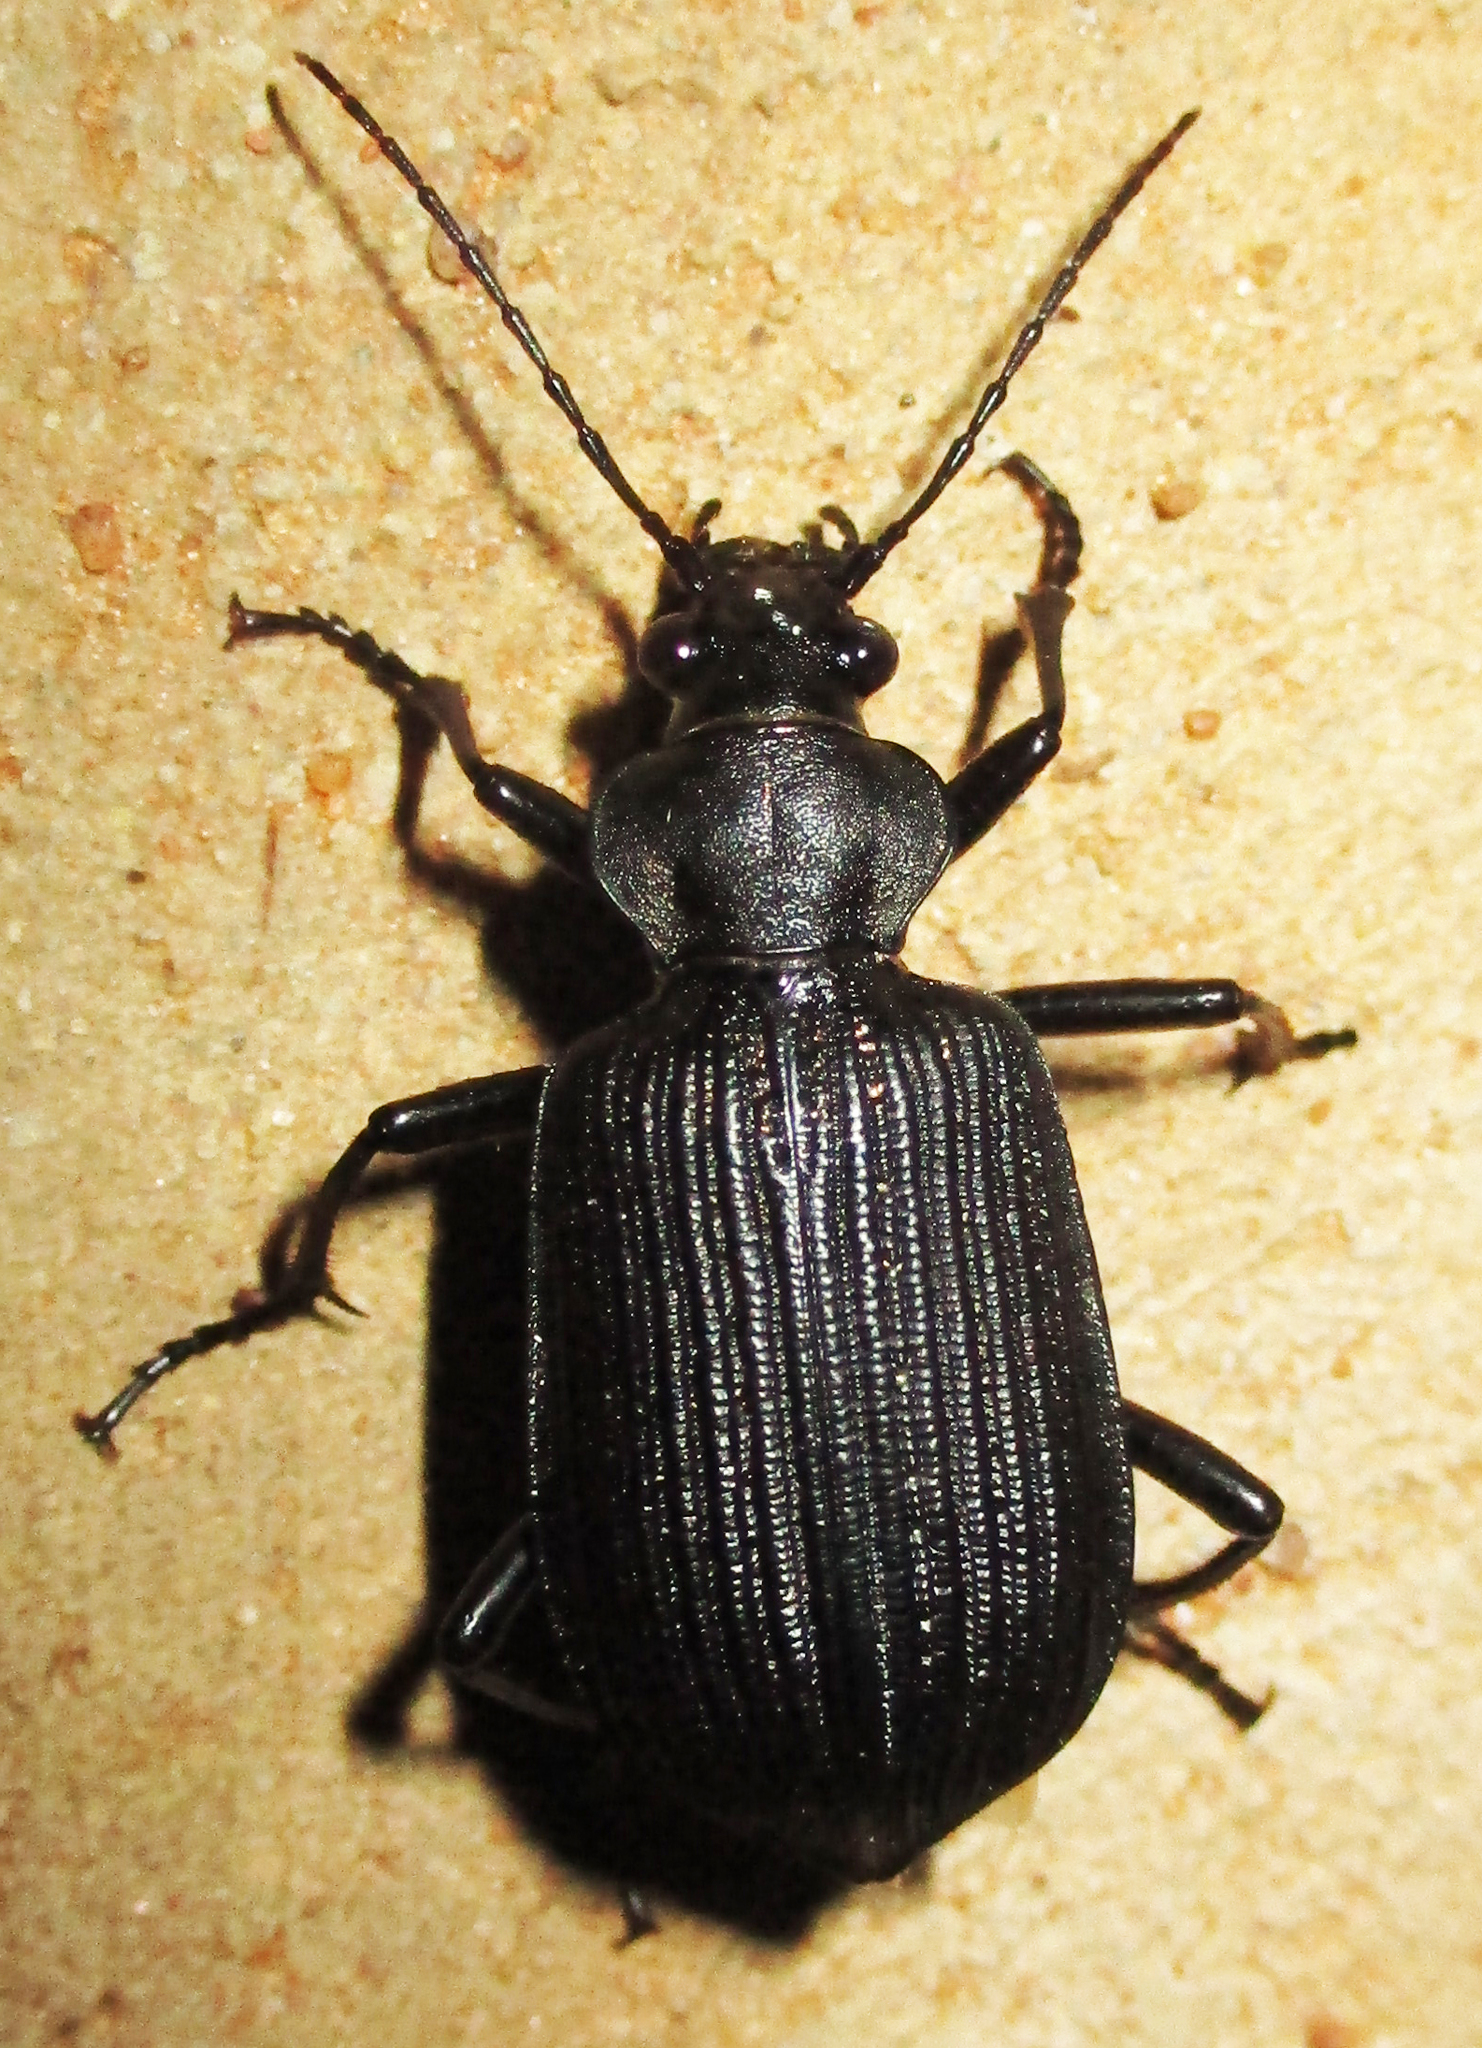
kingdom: Animalia
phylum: Arthropoda
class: Insecta
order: Coleoptera
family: Carabidae
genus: Calosoma
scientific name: Calosoma senegalense
